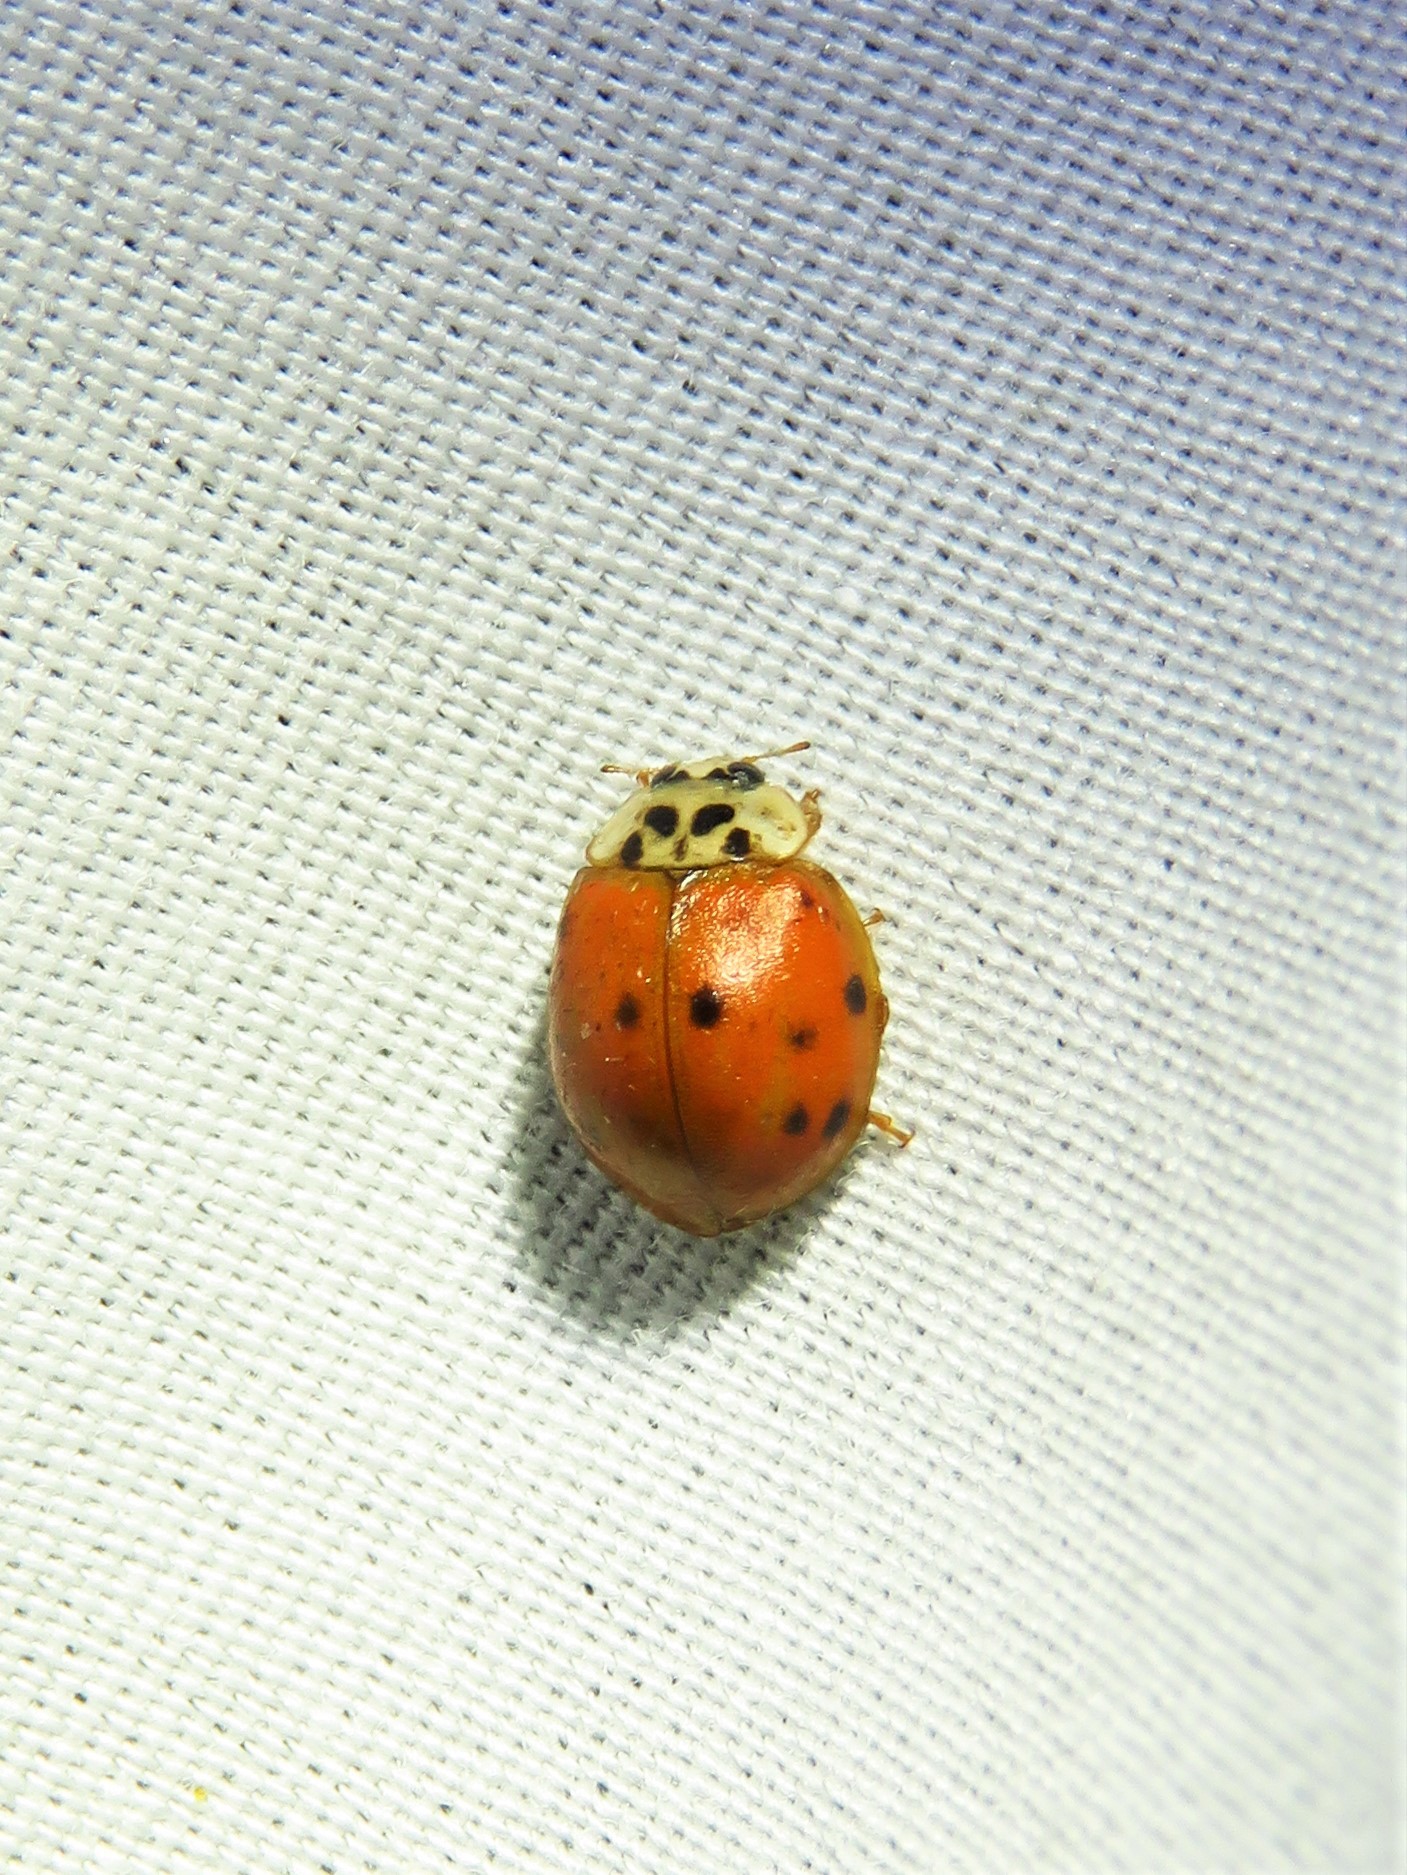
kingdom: Animalia
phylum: Arthropoda
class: Insecta
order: Coleoptera
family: Coccinellidae
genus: Harmonia
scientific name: Harmonia axyridis
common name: Harlequin ladybird
